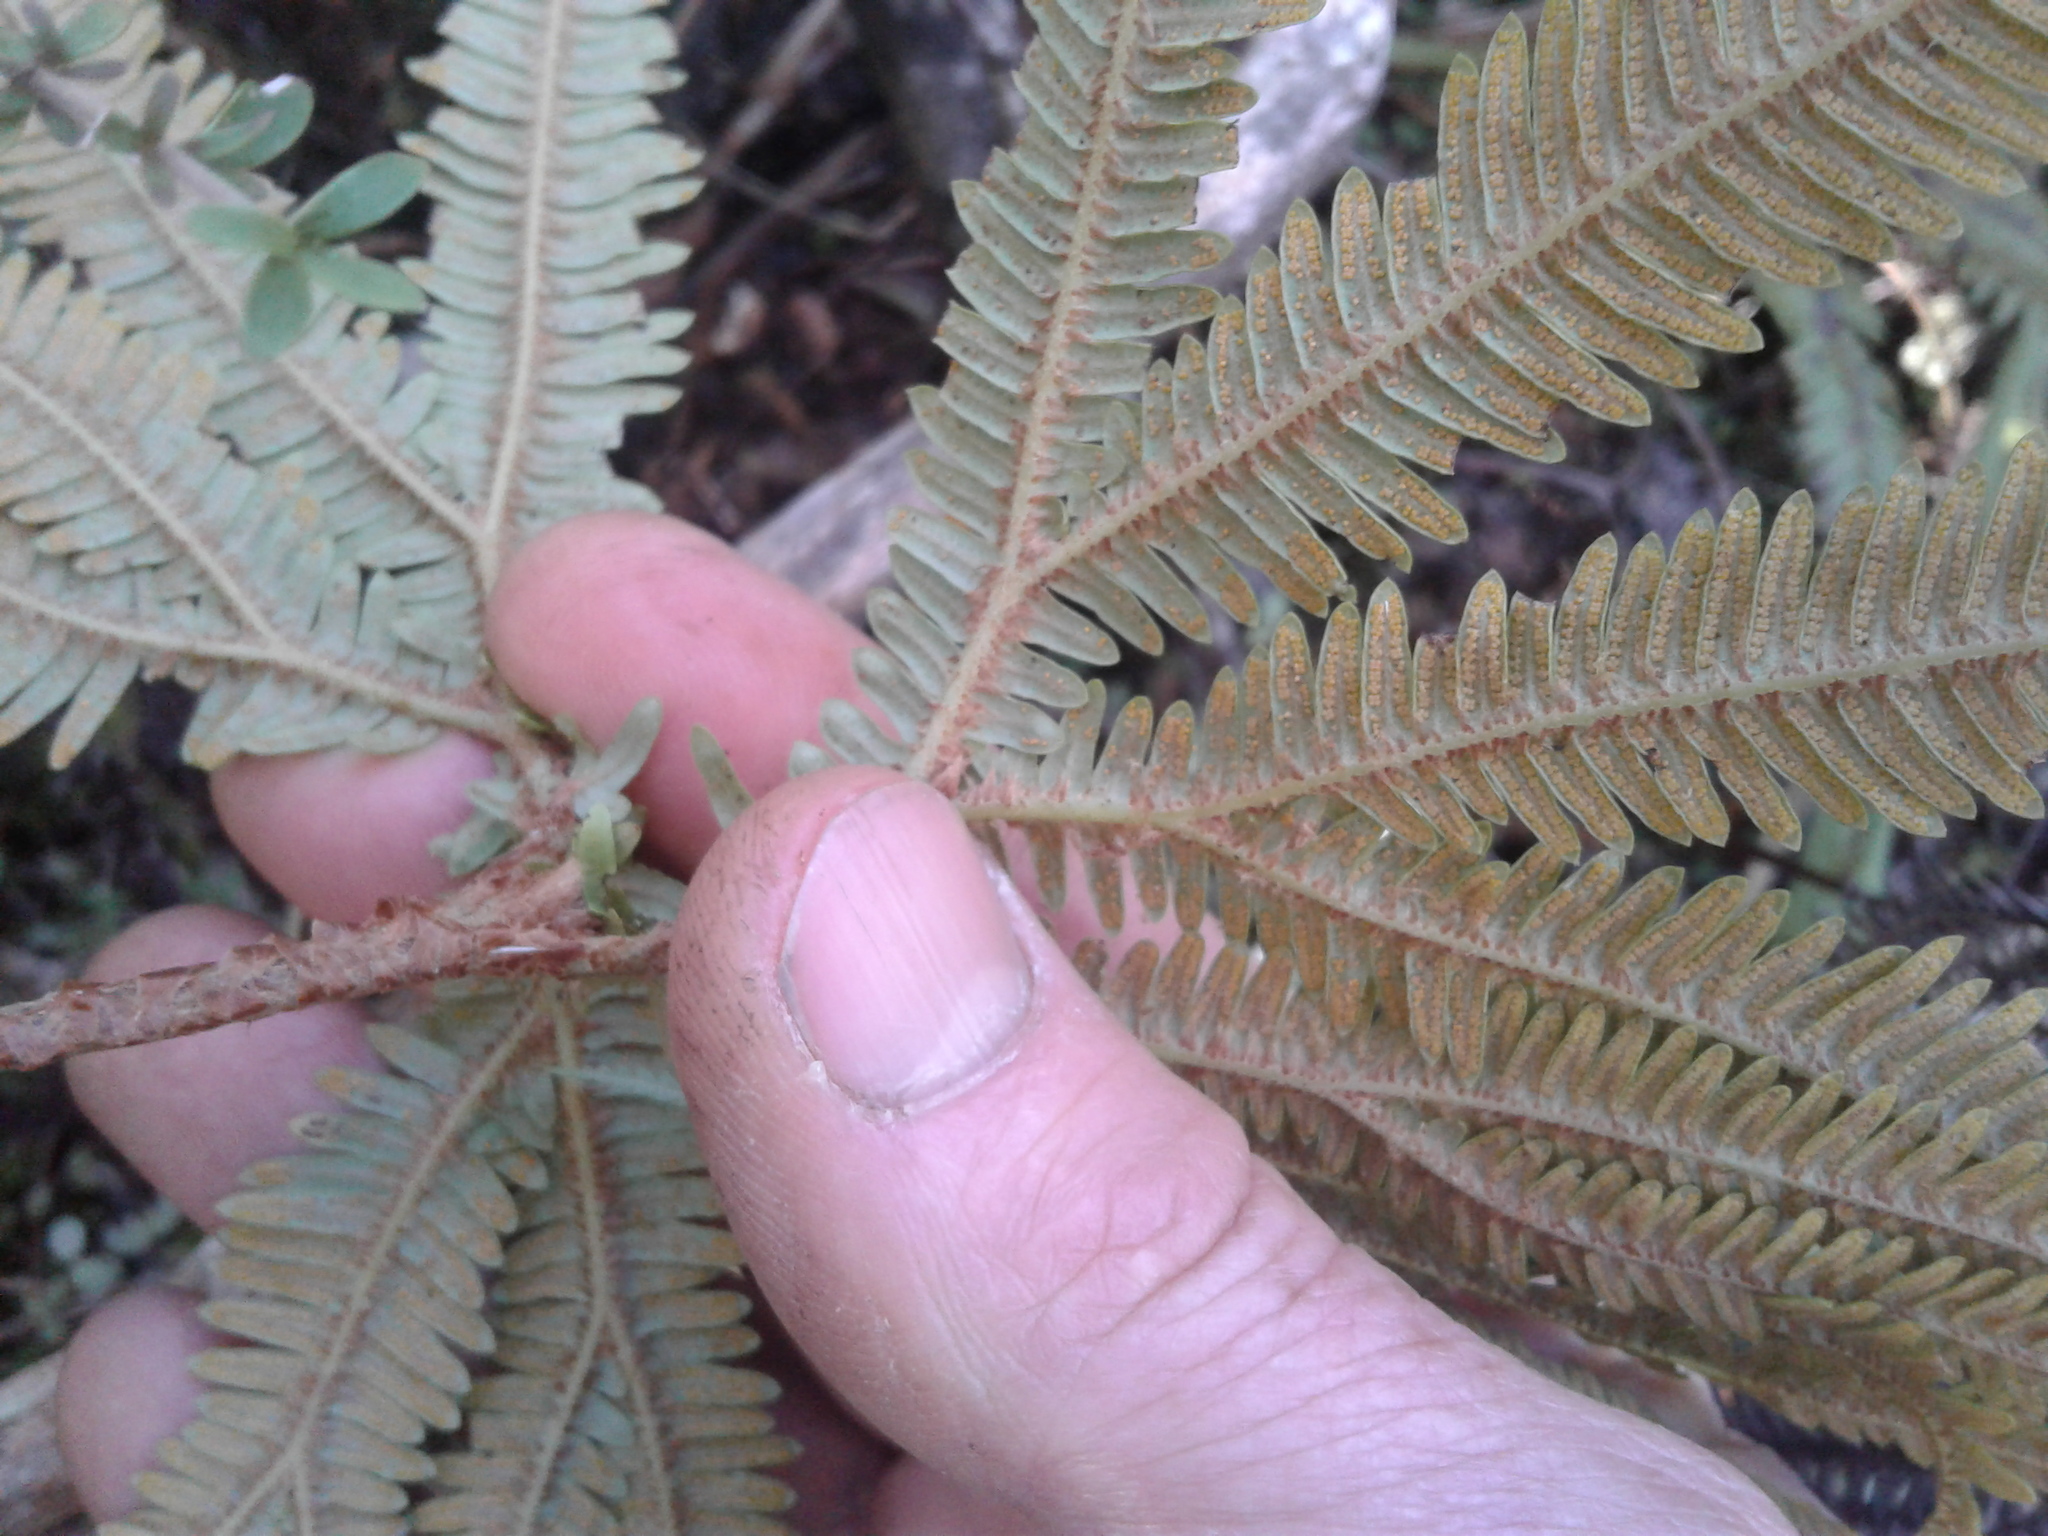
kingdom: Plantae
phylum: Tracheophyta
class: Polypodiopsida
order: Gleicheniales
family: Gleicheniaceae
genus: Sticherus
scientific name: Sticherus cunninghamii
